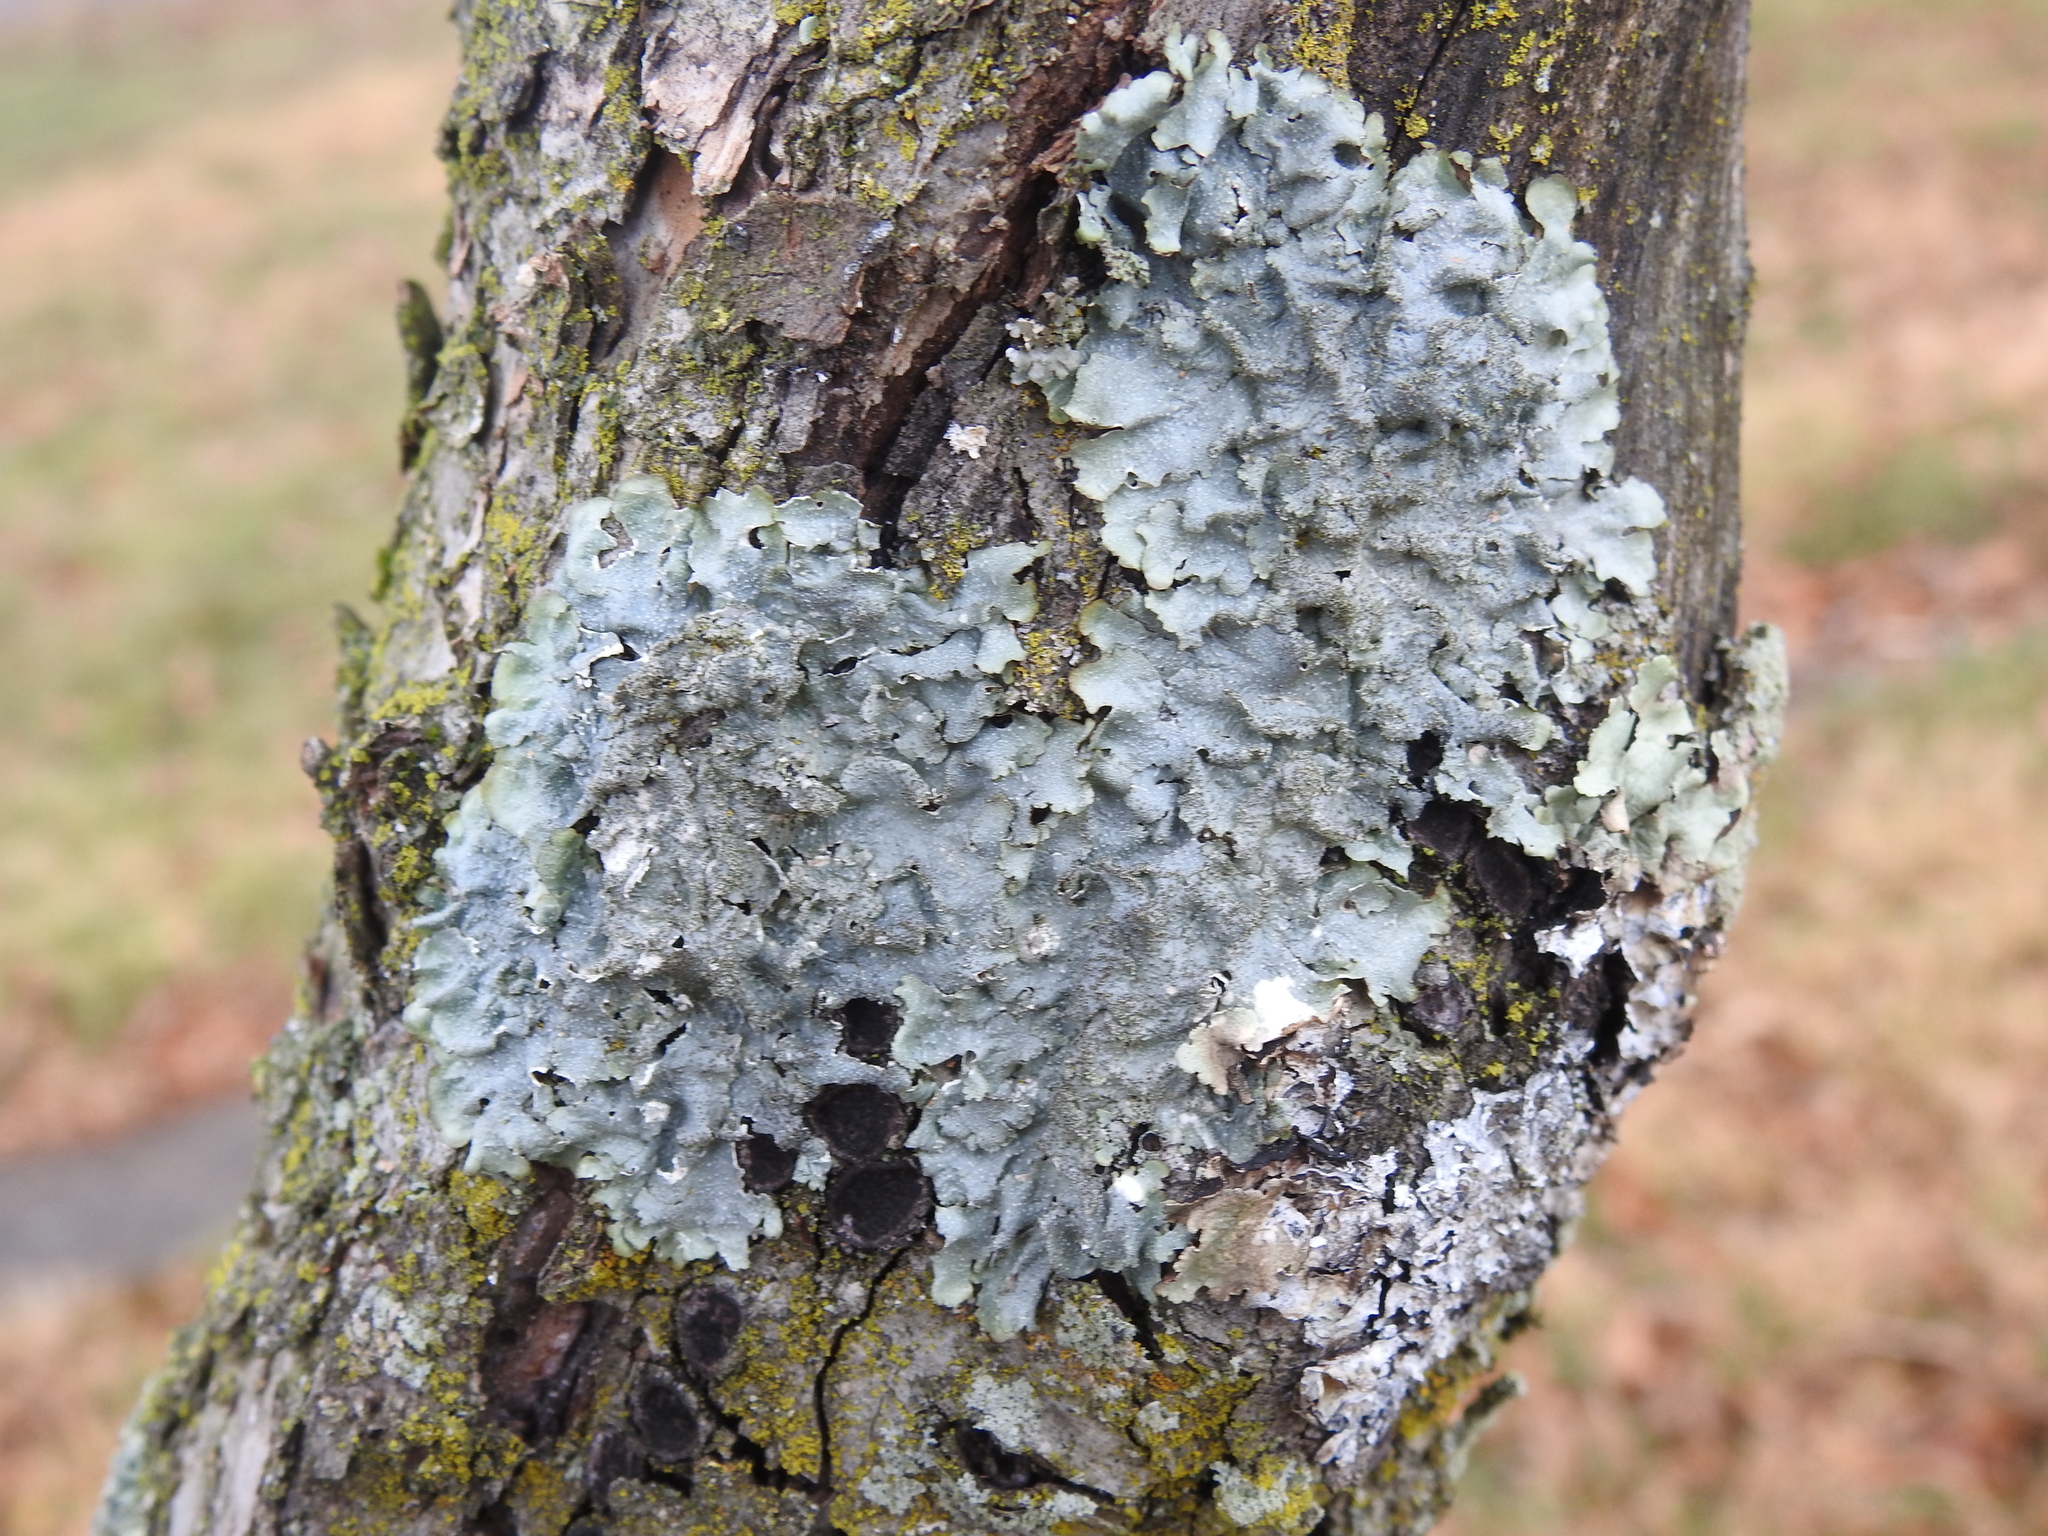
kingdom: Fungi
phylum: Ascomycota
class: Lecanoromycetes
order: Lecanorales
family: Parmeliaceae
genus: Punctelia
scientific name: Punctelia rudecta
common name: Rough speckled shield lichen
